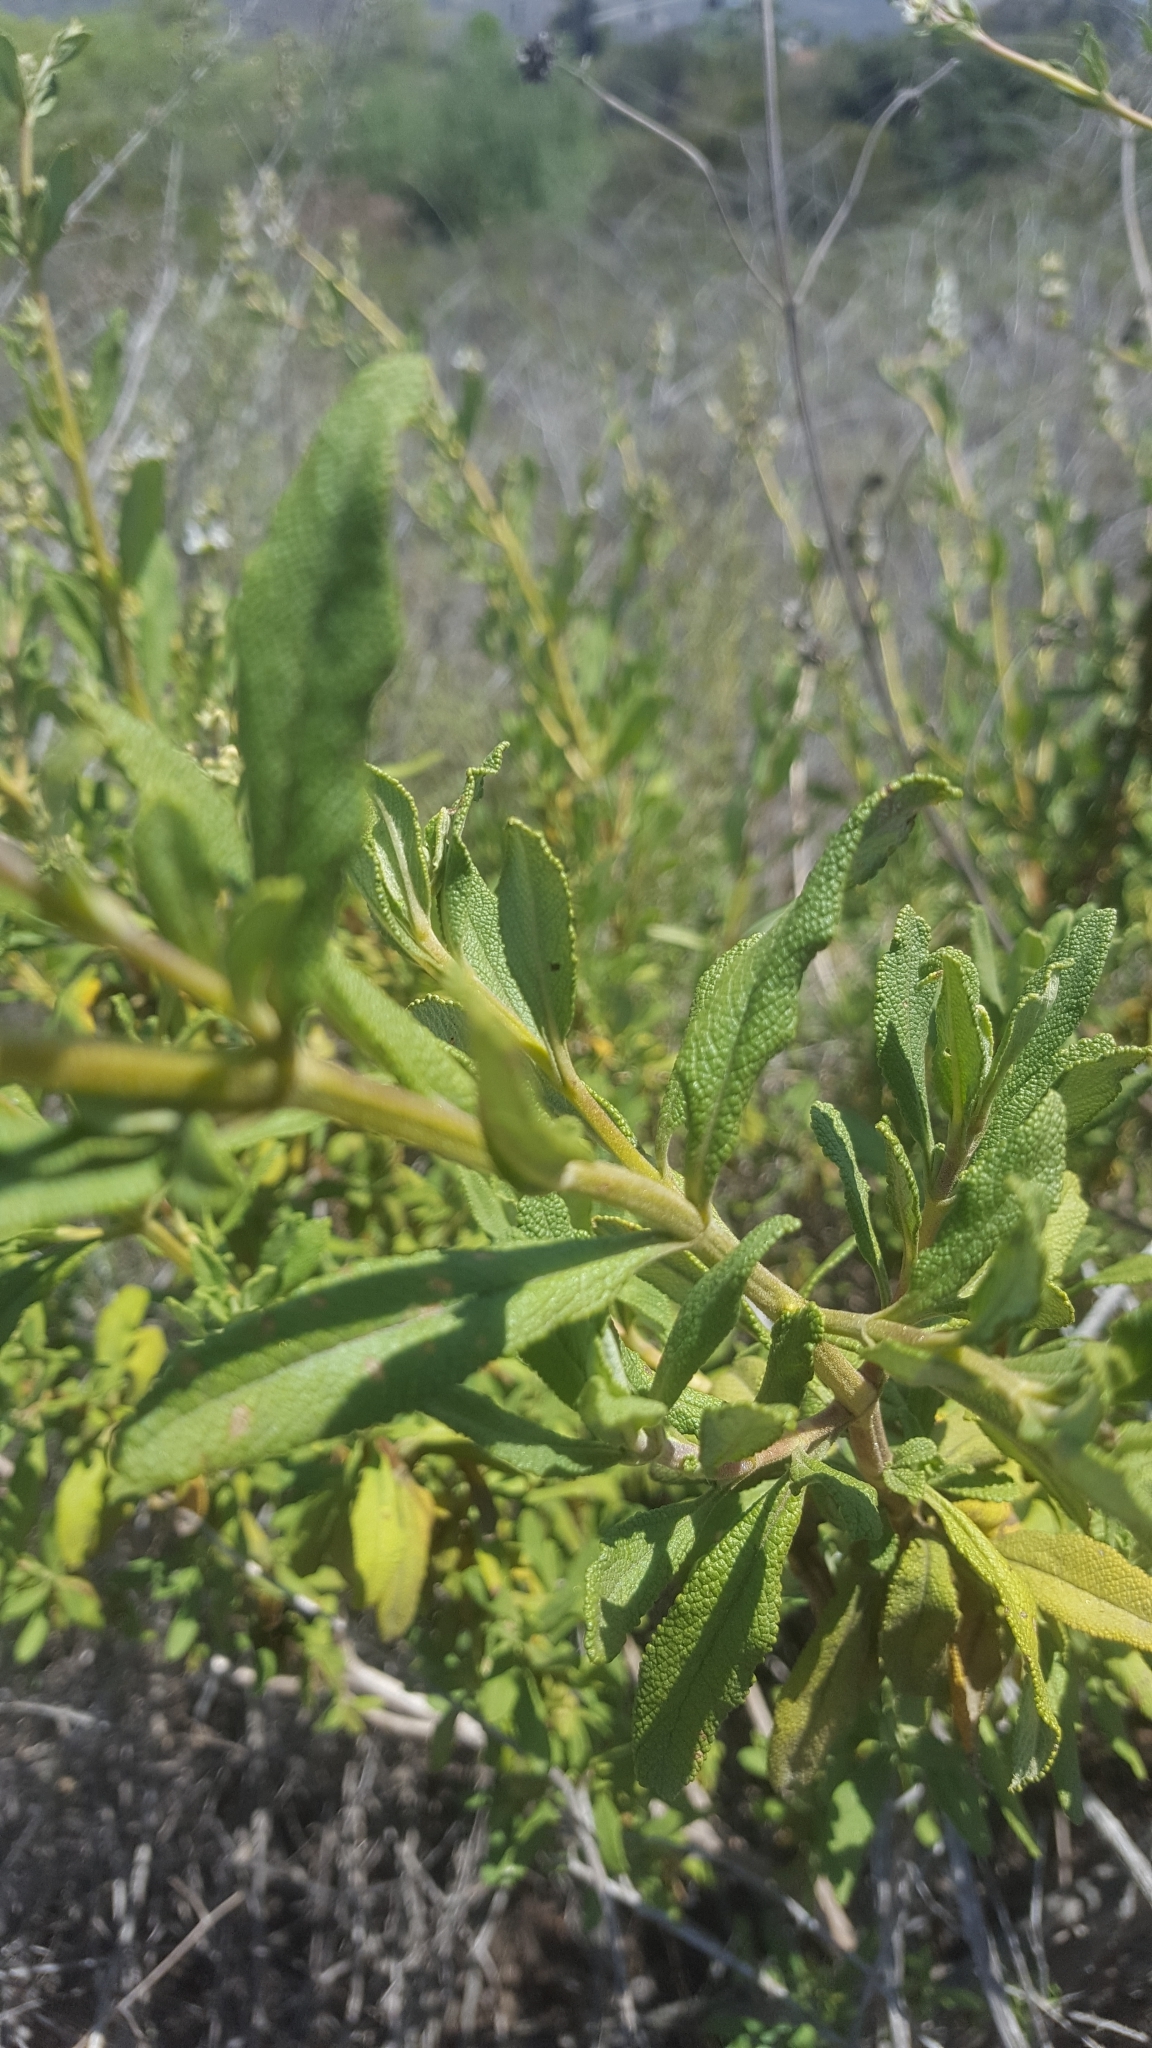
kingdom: Plantae
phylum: Tracheophyta
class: Magnoliopsida
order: Lamiales
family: Lamiaceae
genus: Salvia
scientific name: Salvia mellifera
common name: Black sage
